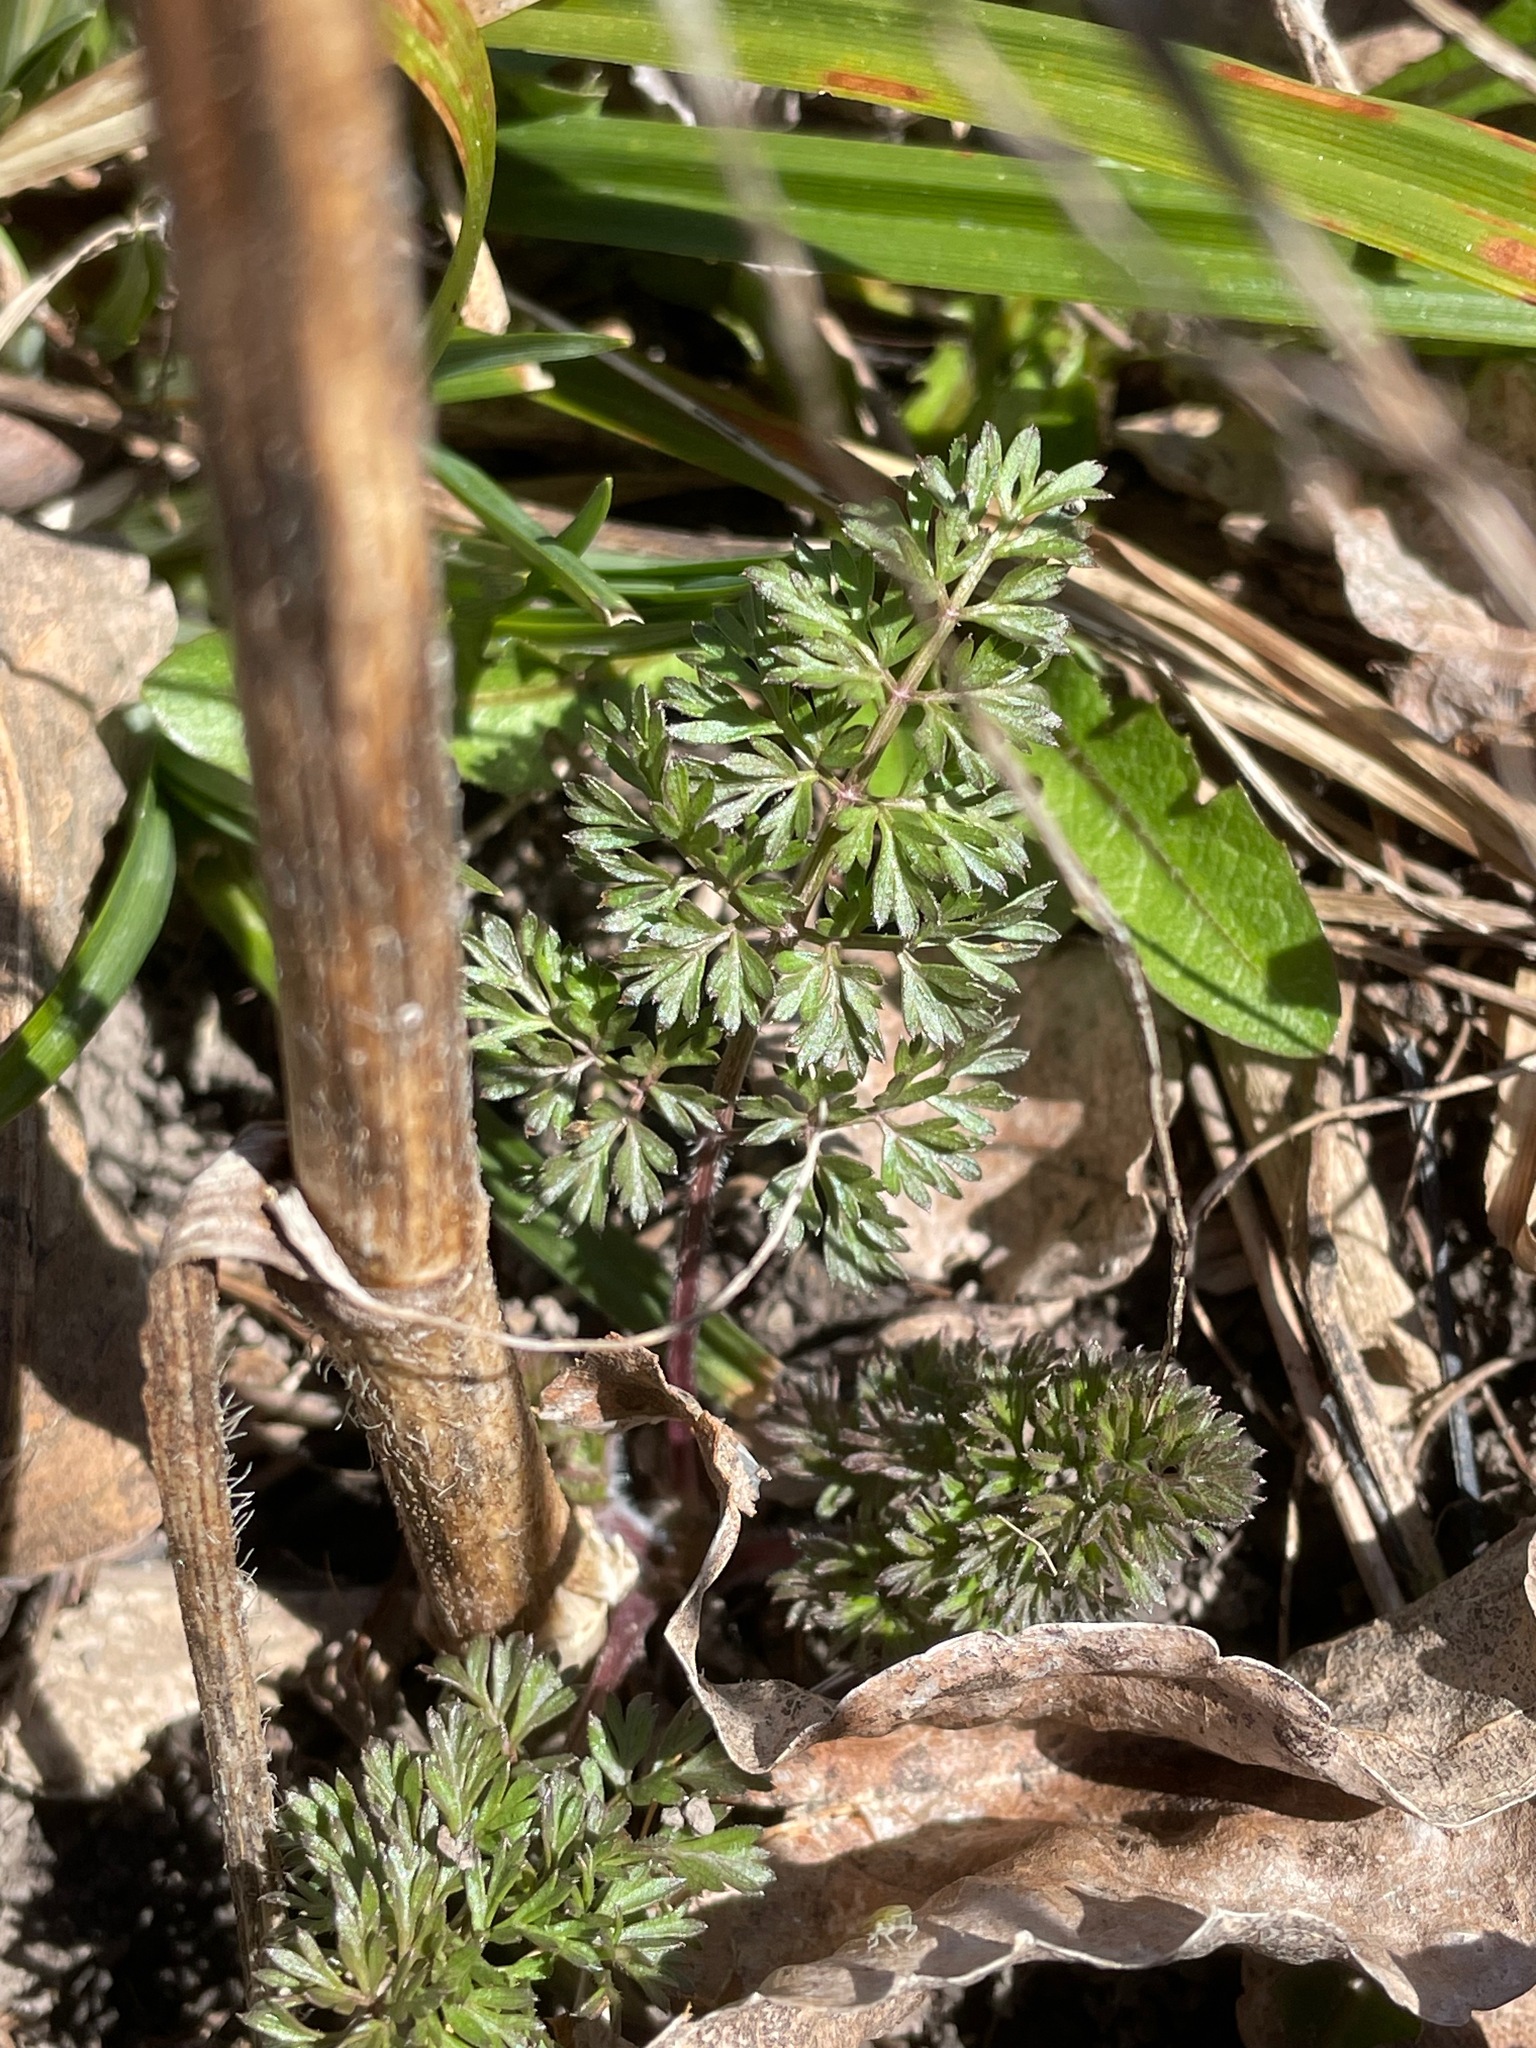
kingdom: Plantae
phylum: Tracheophyta
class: Magnoliopsida
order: Apiales
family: Apiaceae
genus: Daucus
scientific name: Daucus carota
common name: Wild carrot
